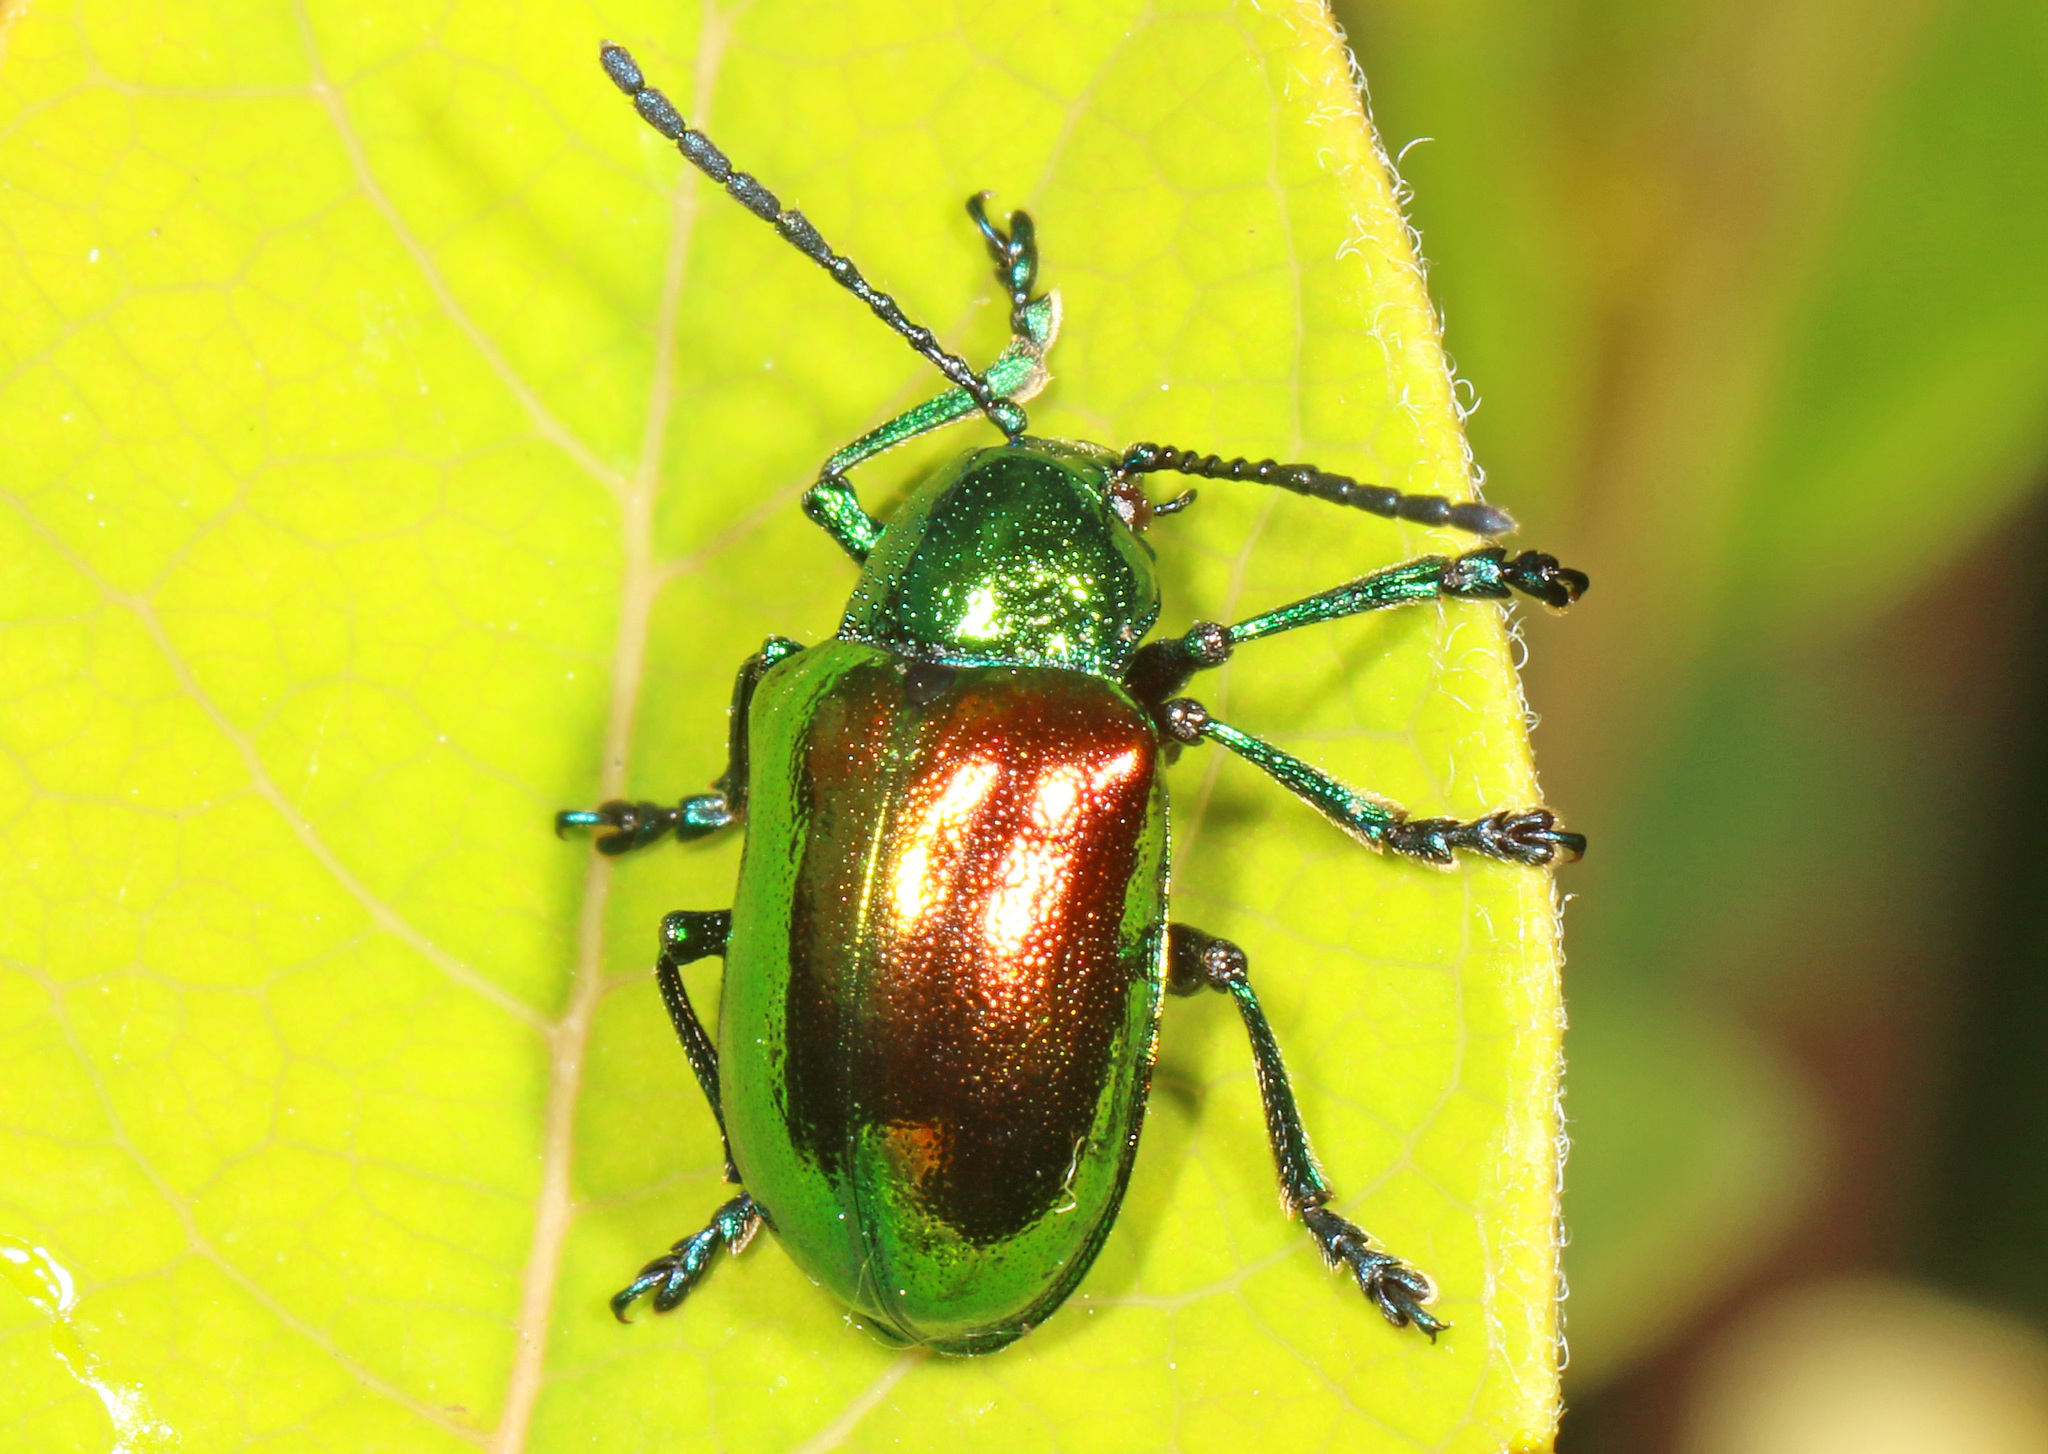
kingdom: Animalia
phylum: Arthropoda
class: Insecta
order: Coleoptera
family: Chrysomelidae
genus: Chrysochus
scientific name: Chrysochus auratus
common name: Dogbane leaf beetle
